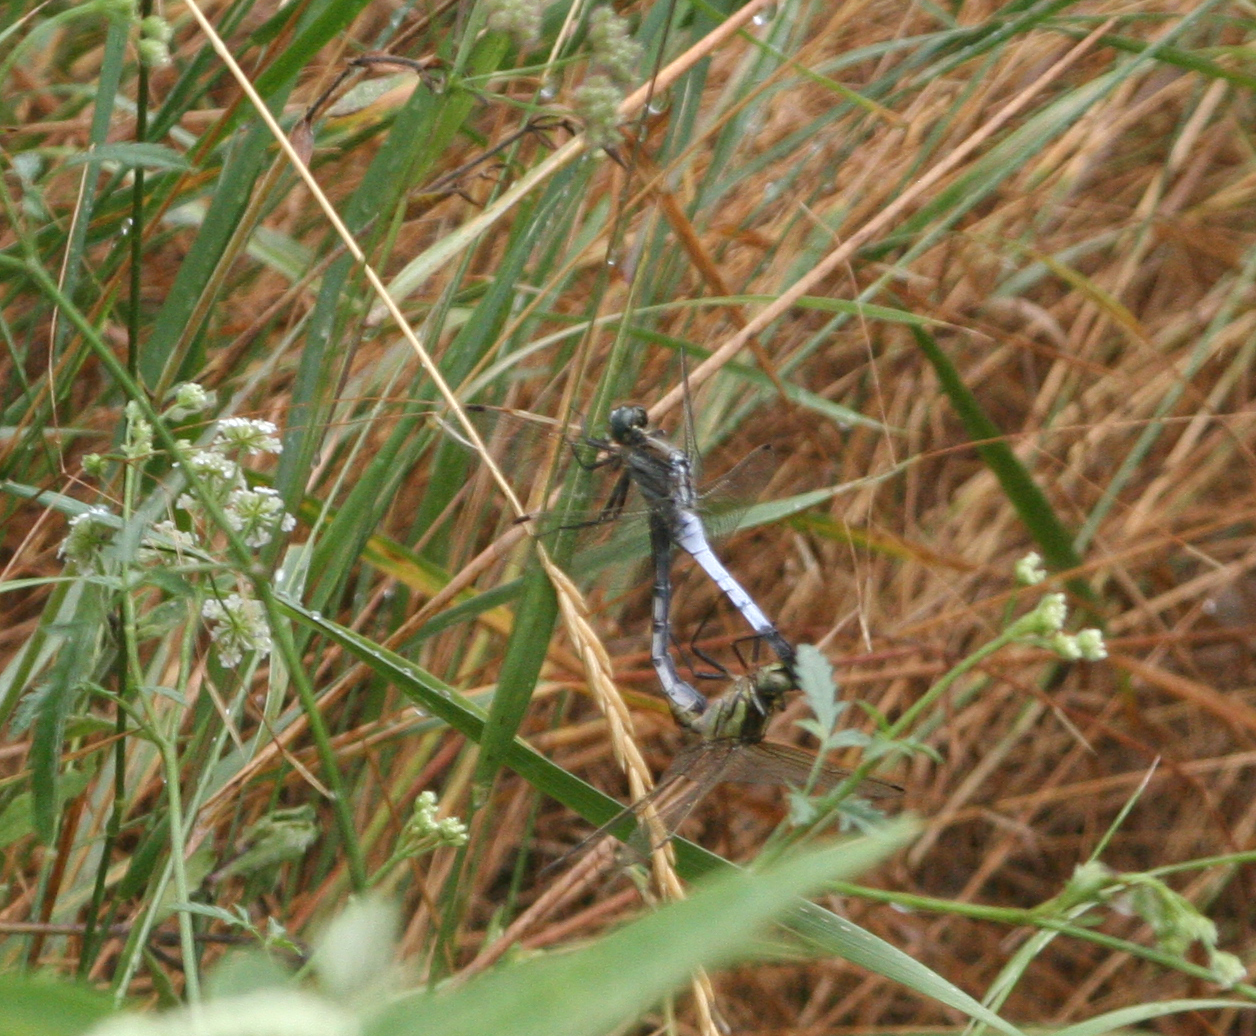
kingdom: Animalia
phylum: Arthropoda
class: Insecta
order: Odonata
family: Libellulidae
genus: Orthetrum
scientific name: Orthetrum albistylum
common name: White-tailed skimmer
